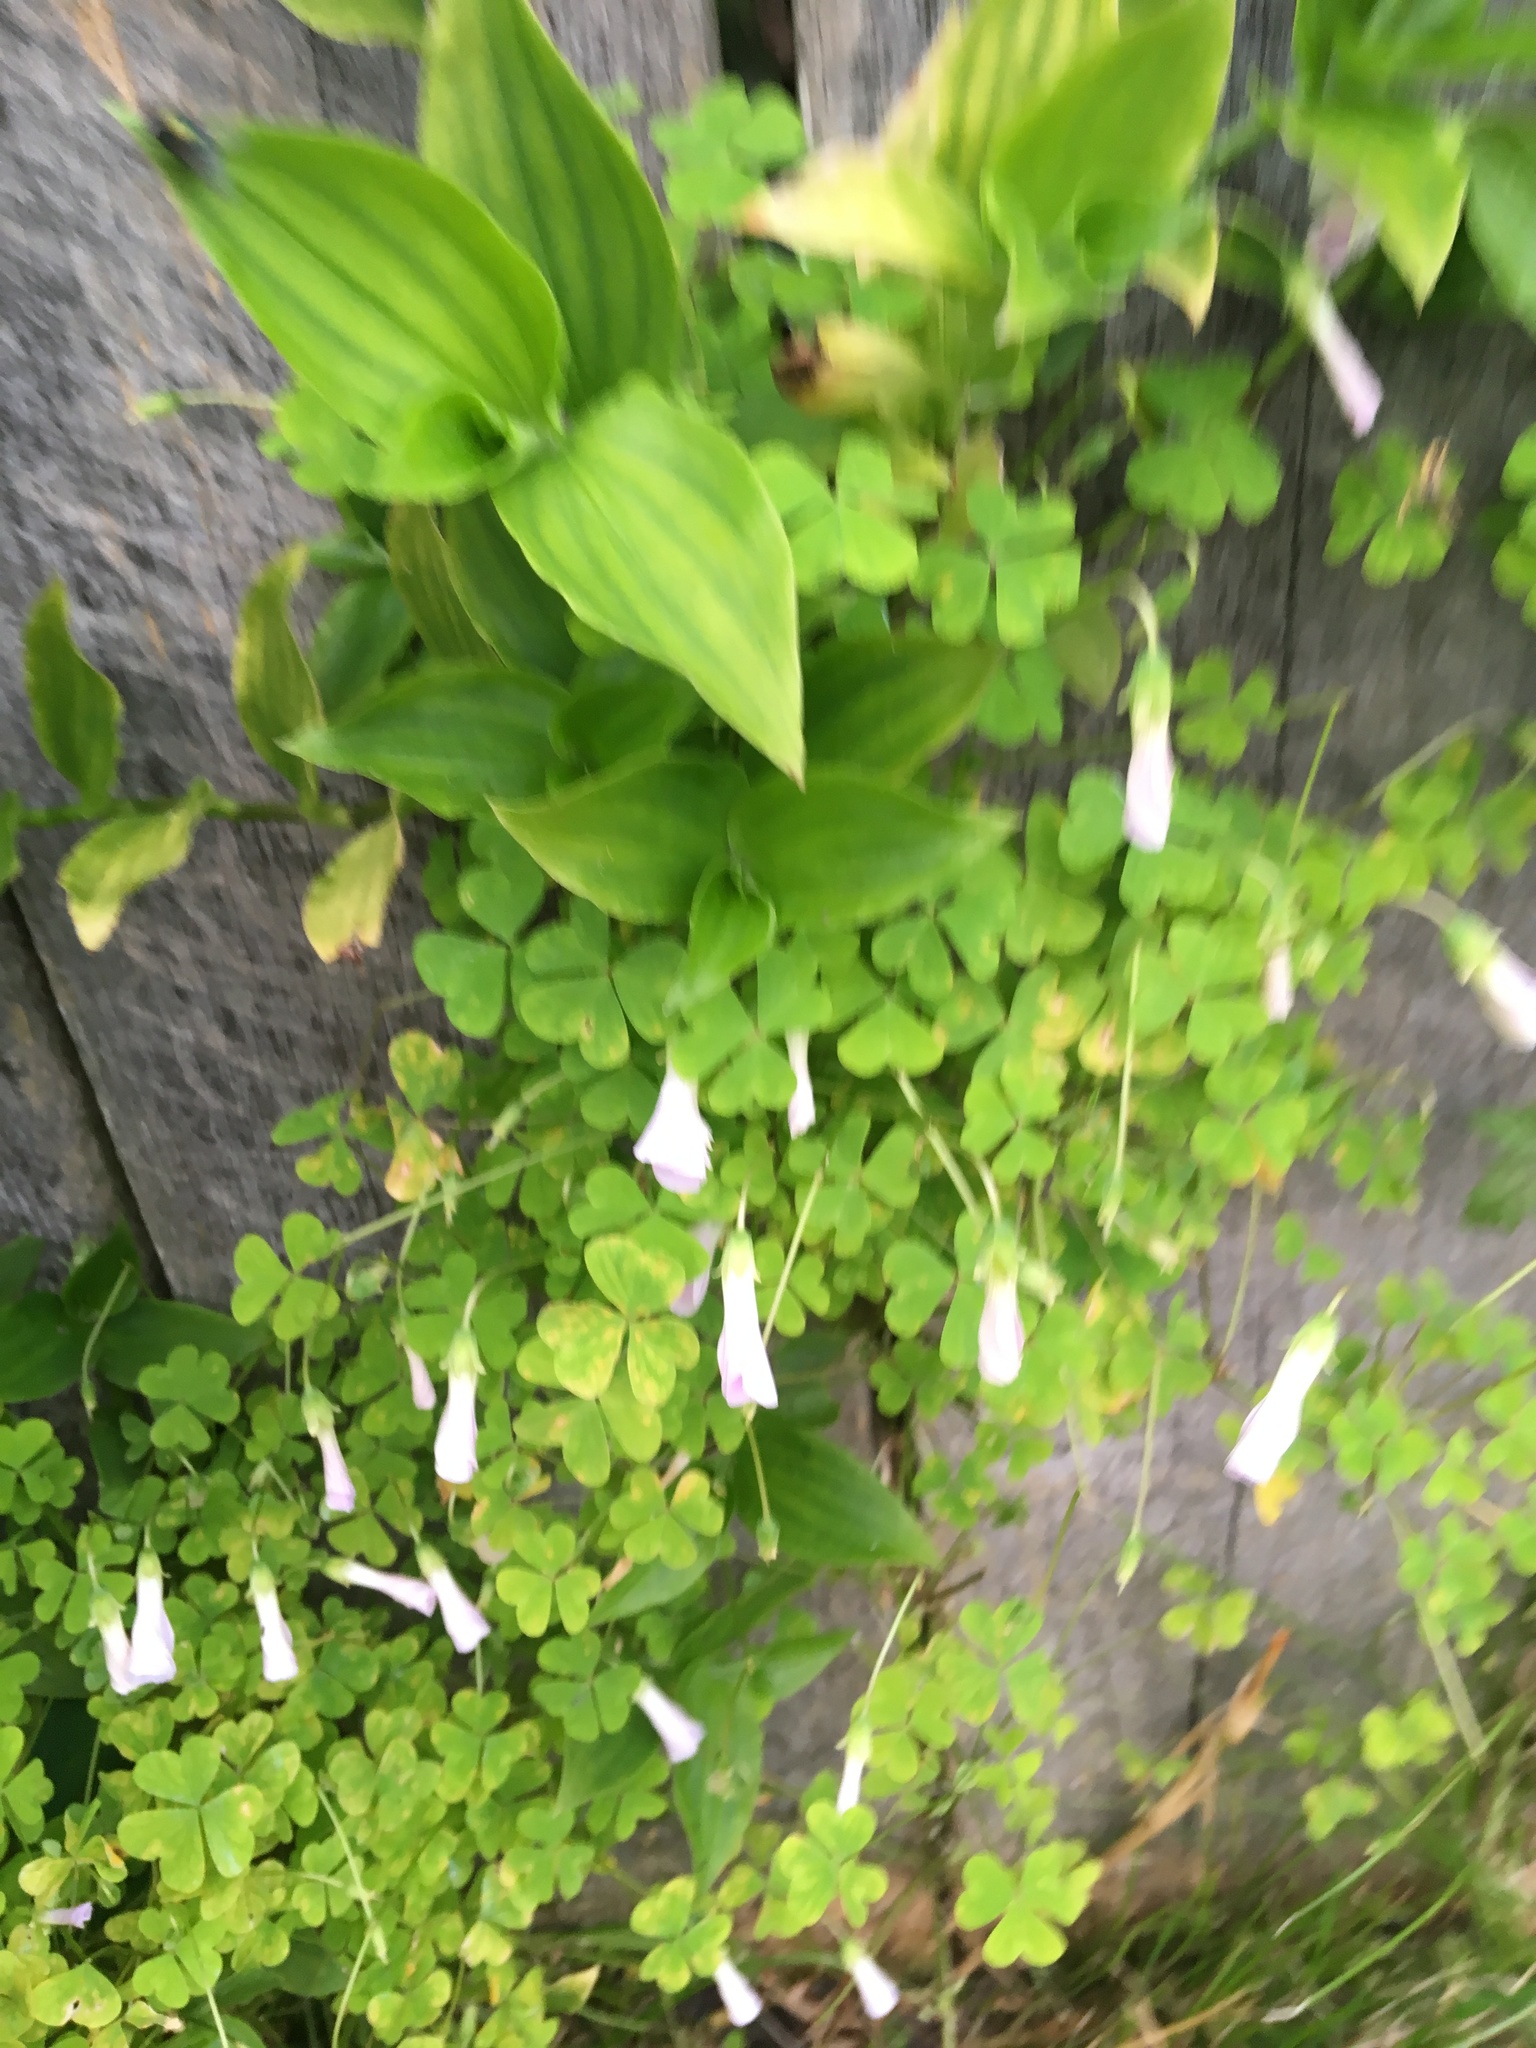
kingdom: Plantae
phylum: Tracheophyta
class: Magnoliopsida
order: Oxalidales
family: Oxalidaceae
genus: Oxalis
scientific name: Oxalis incarnata
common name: Pale pink-sorrel
